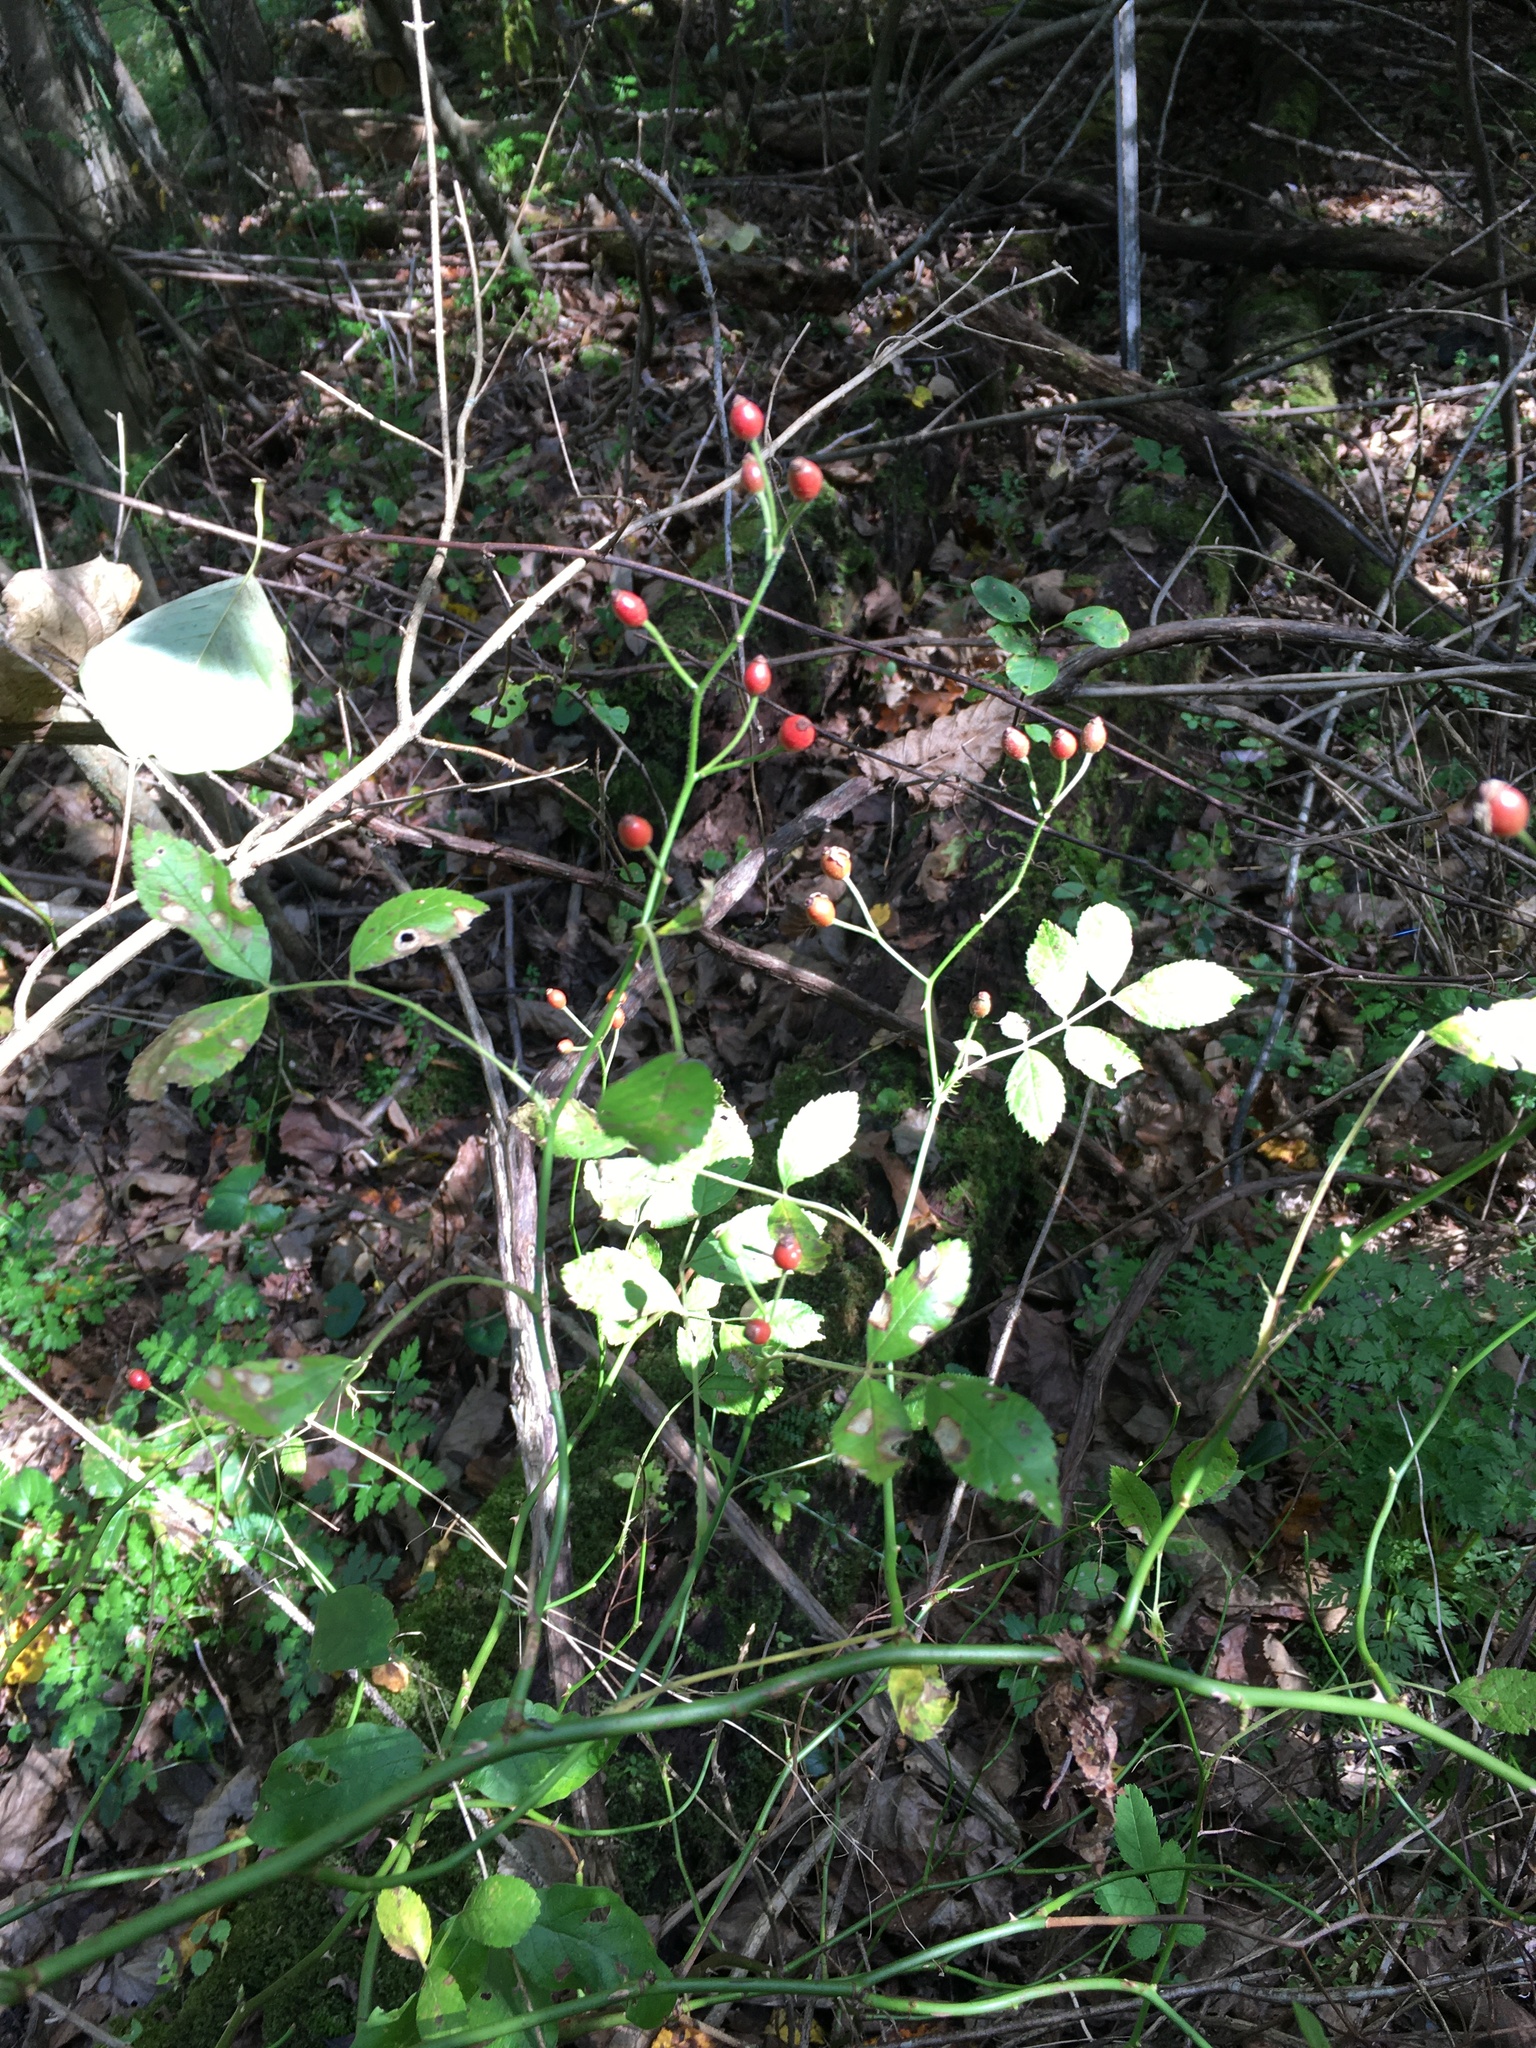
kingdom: Plantae
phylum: Tracheophyta
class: Magnoliopsida
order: Rosales
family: Rosaceae
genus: Rosa
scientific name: Rosa multiflora
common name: Multiflora rose
